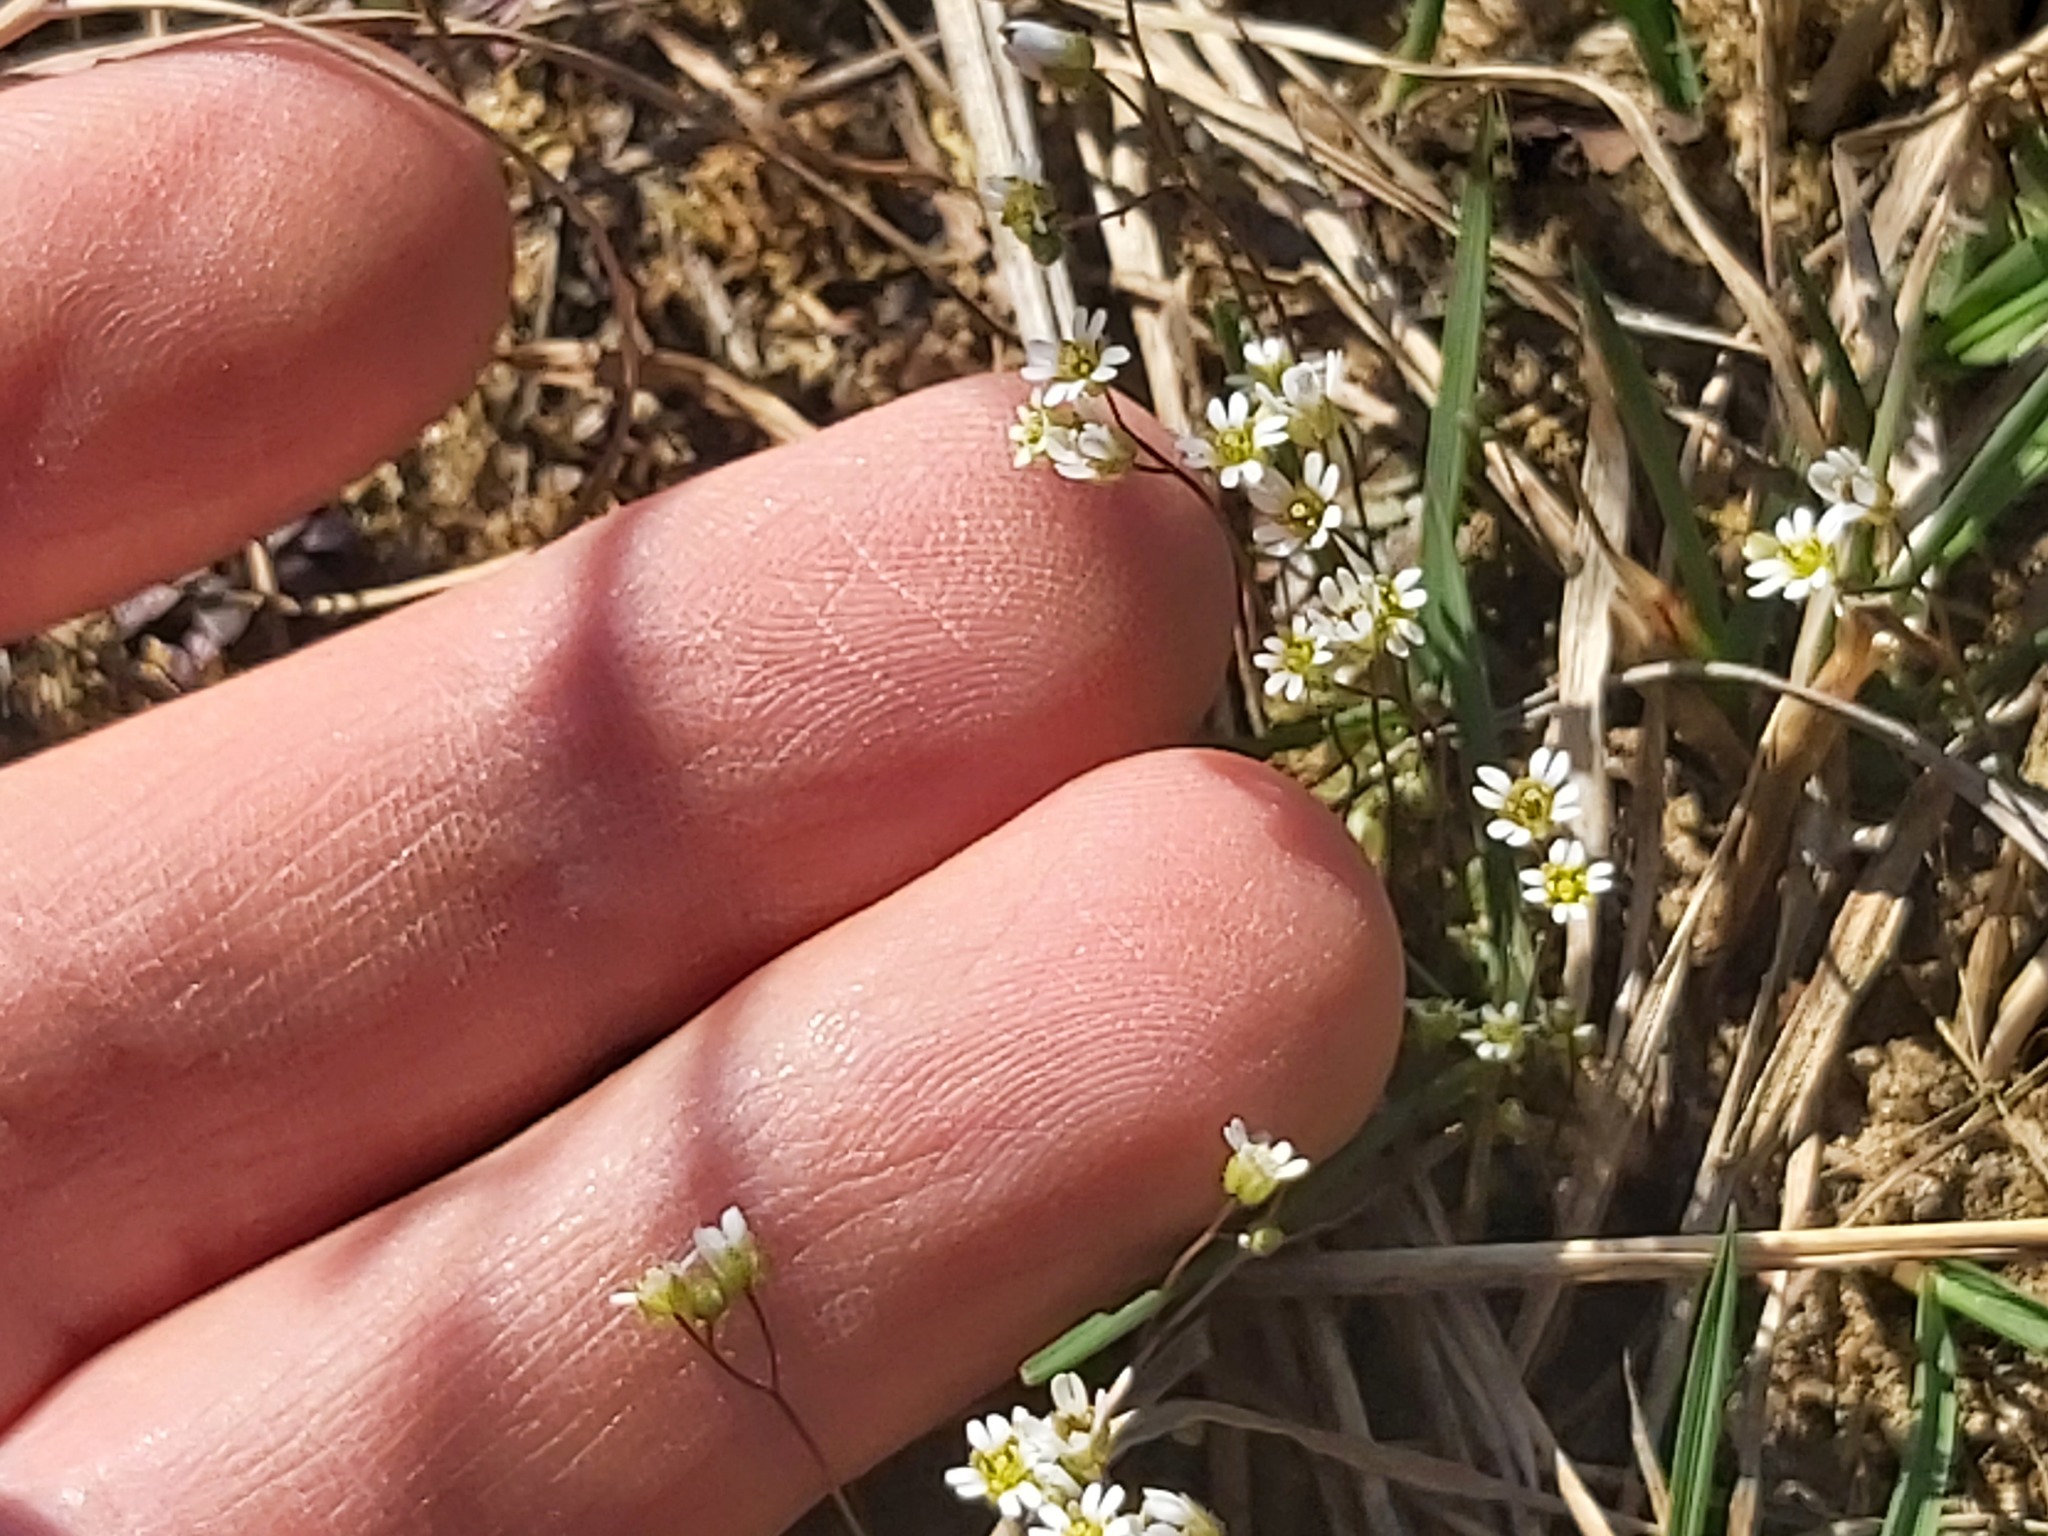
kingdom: Plantae
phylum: Tracheophyta
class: Magnoliopsida
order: Brassicales
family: Brassicaceae
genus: Draba
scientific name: Draba verna
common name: Spring draba
